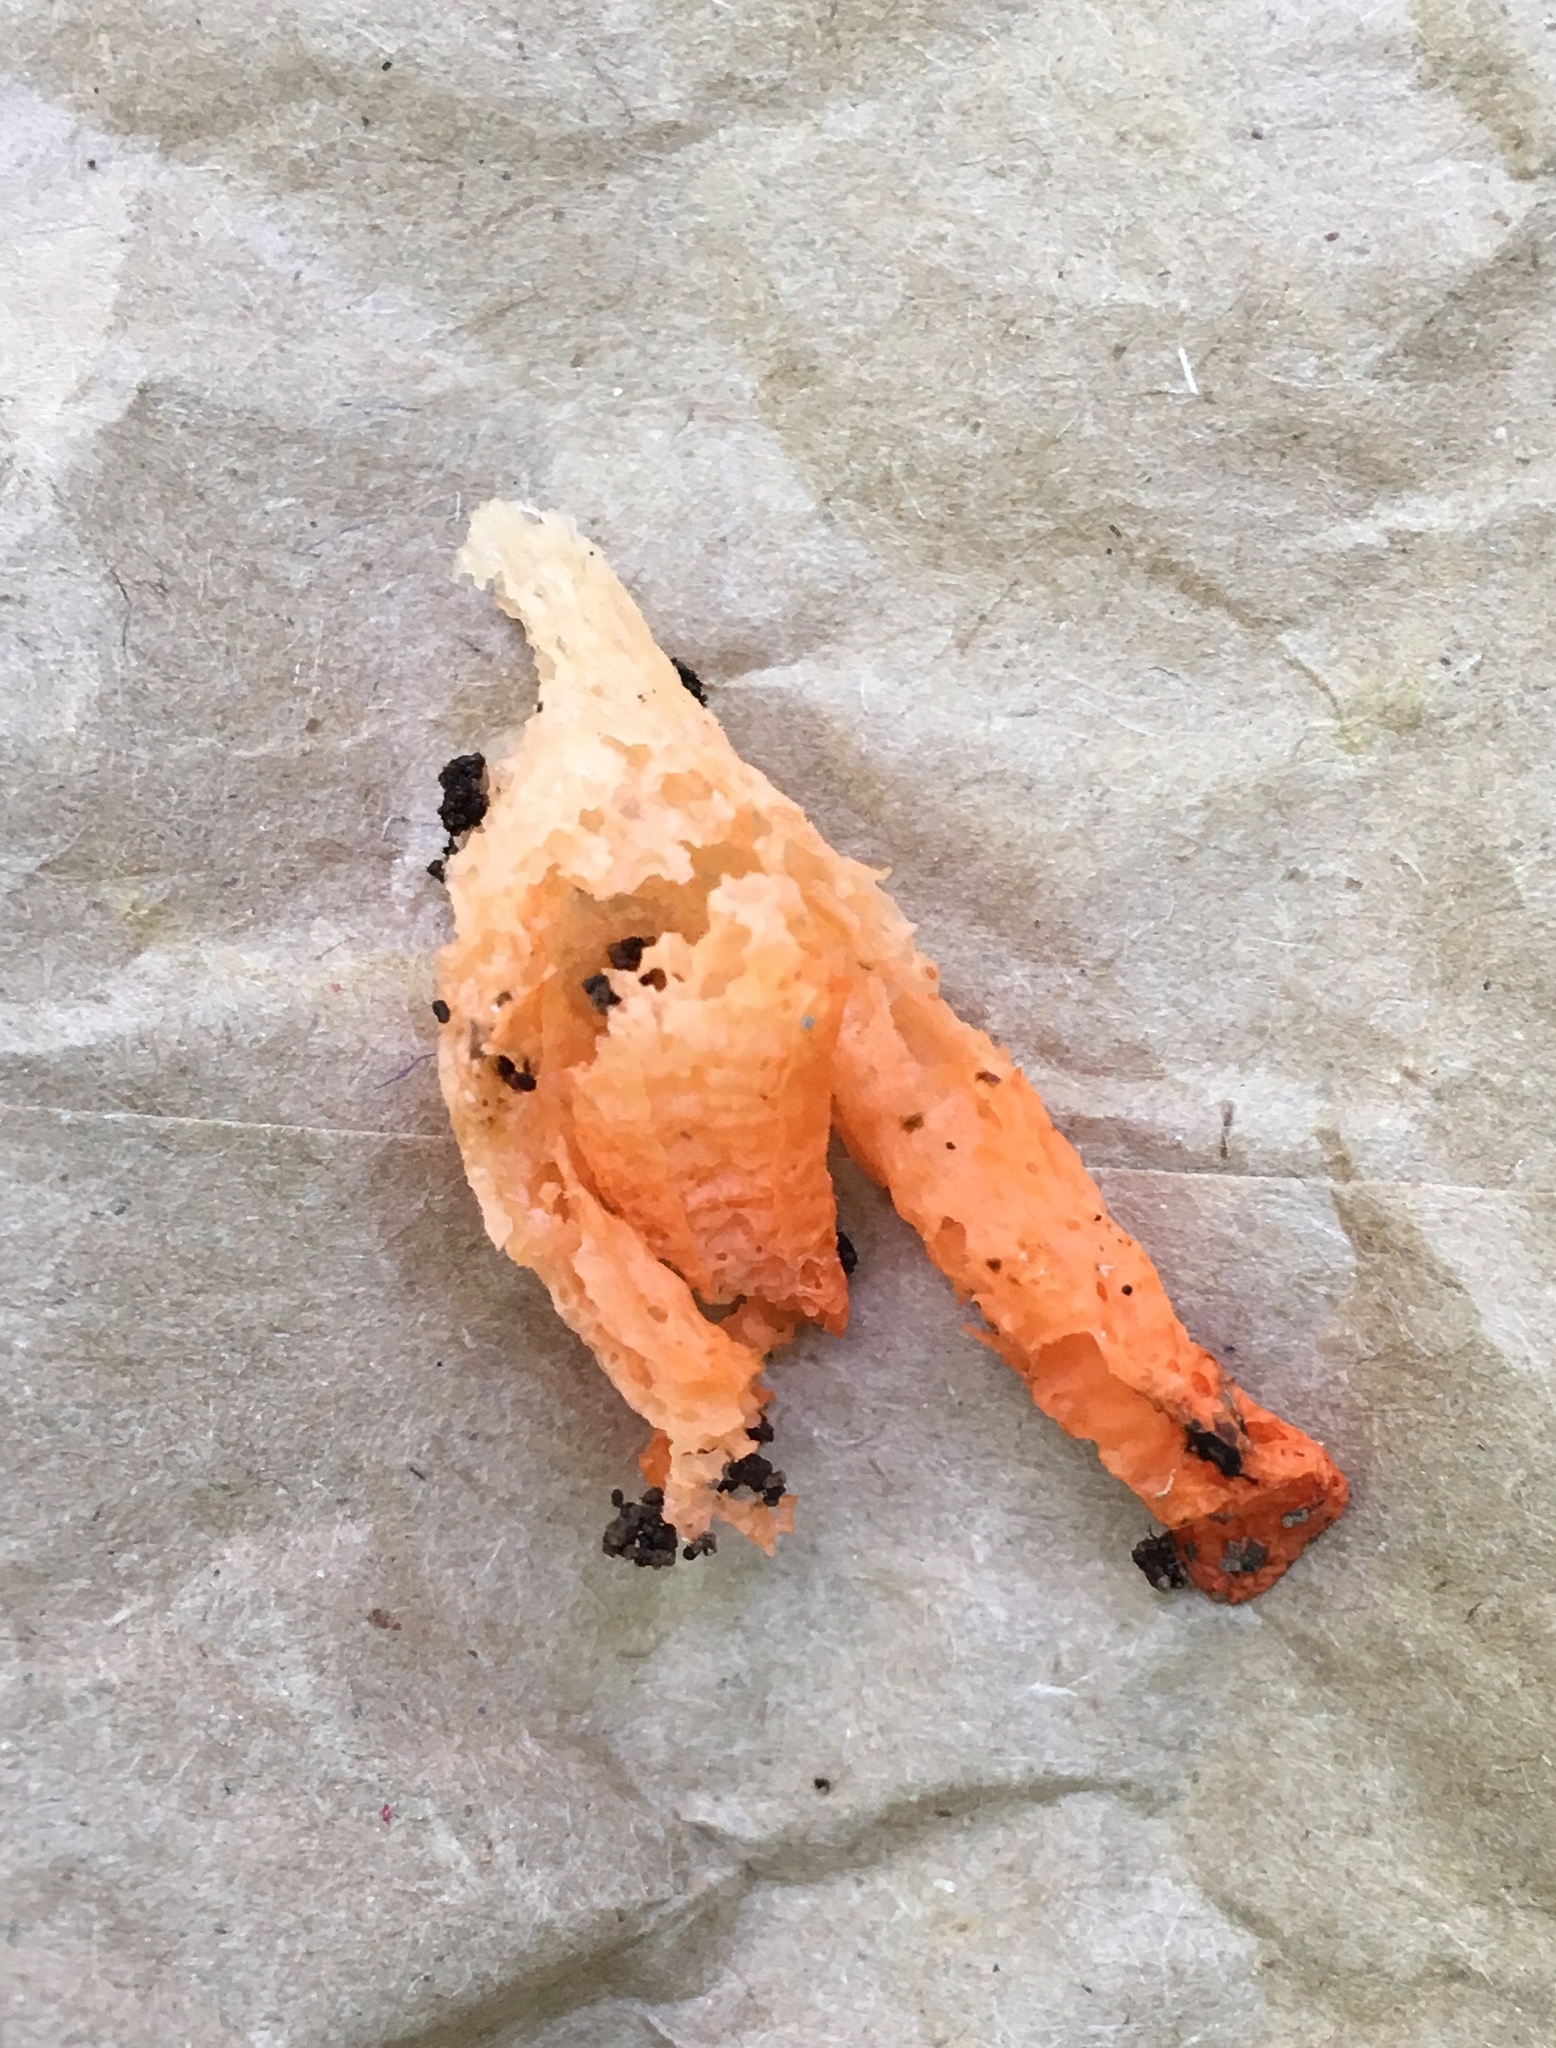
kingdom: Fungi
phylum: Basidiomycota
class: Agaricomycetes
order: Phallales
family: Phallaceae
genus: Pseudocolus
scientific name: Pseudocolus fusiformis
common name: Stinky squid
